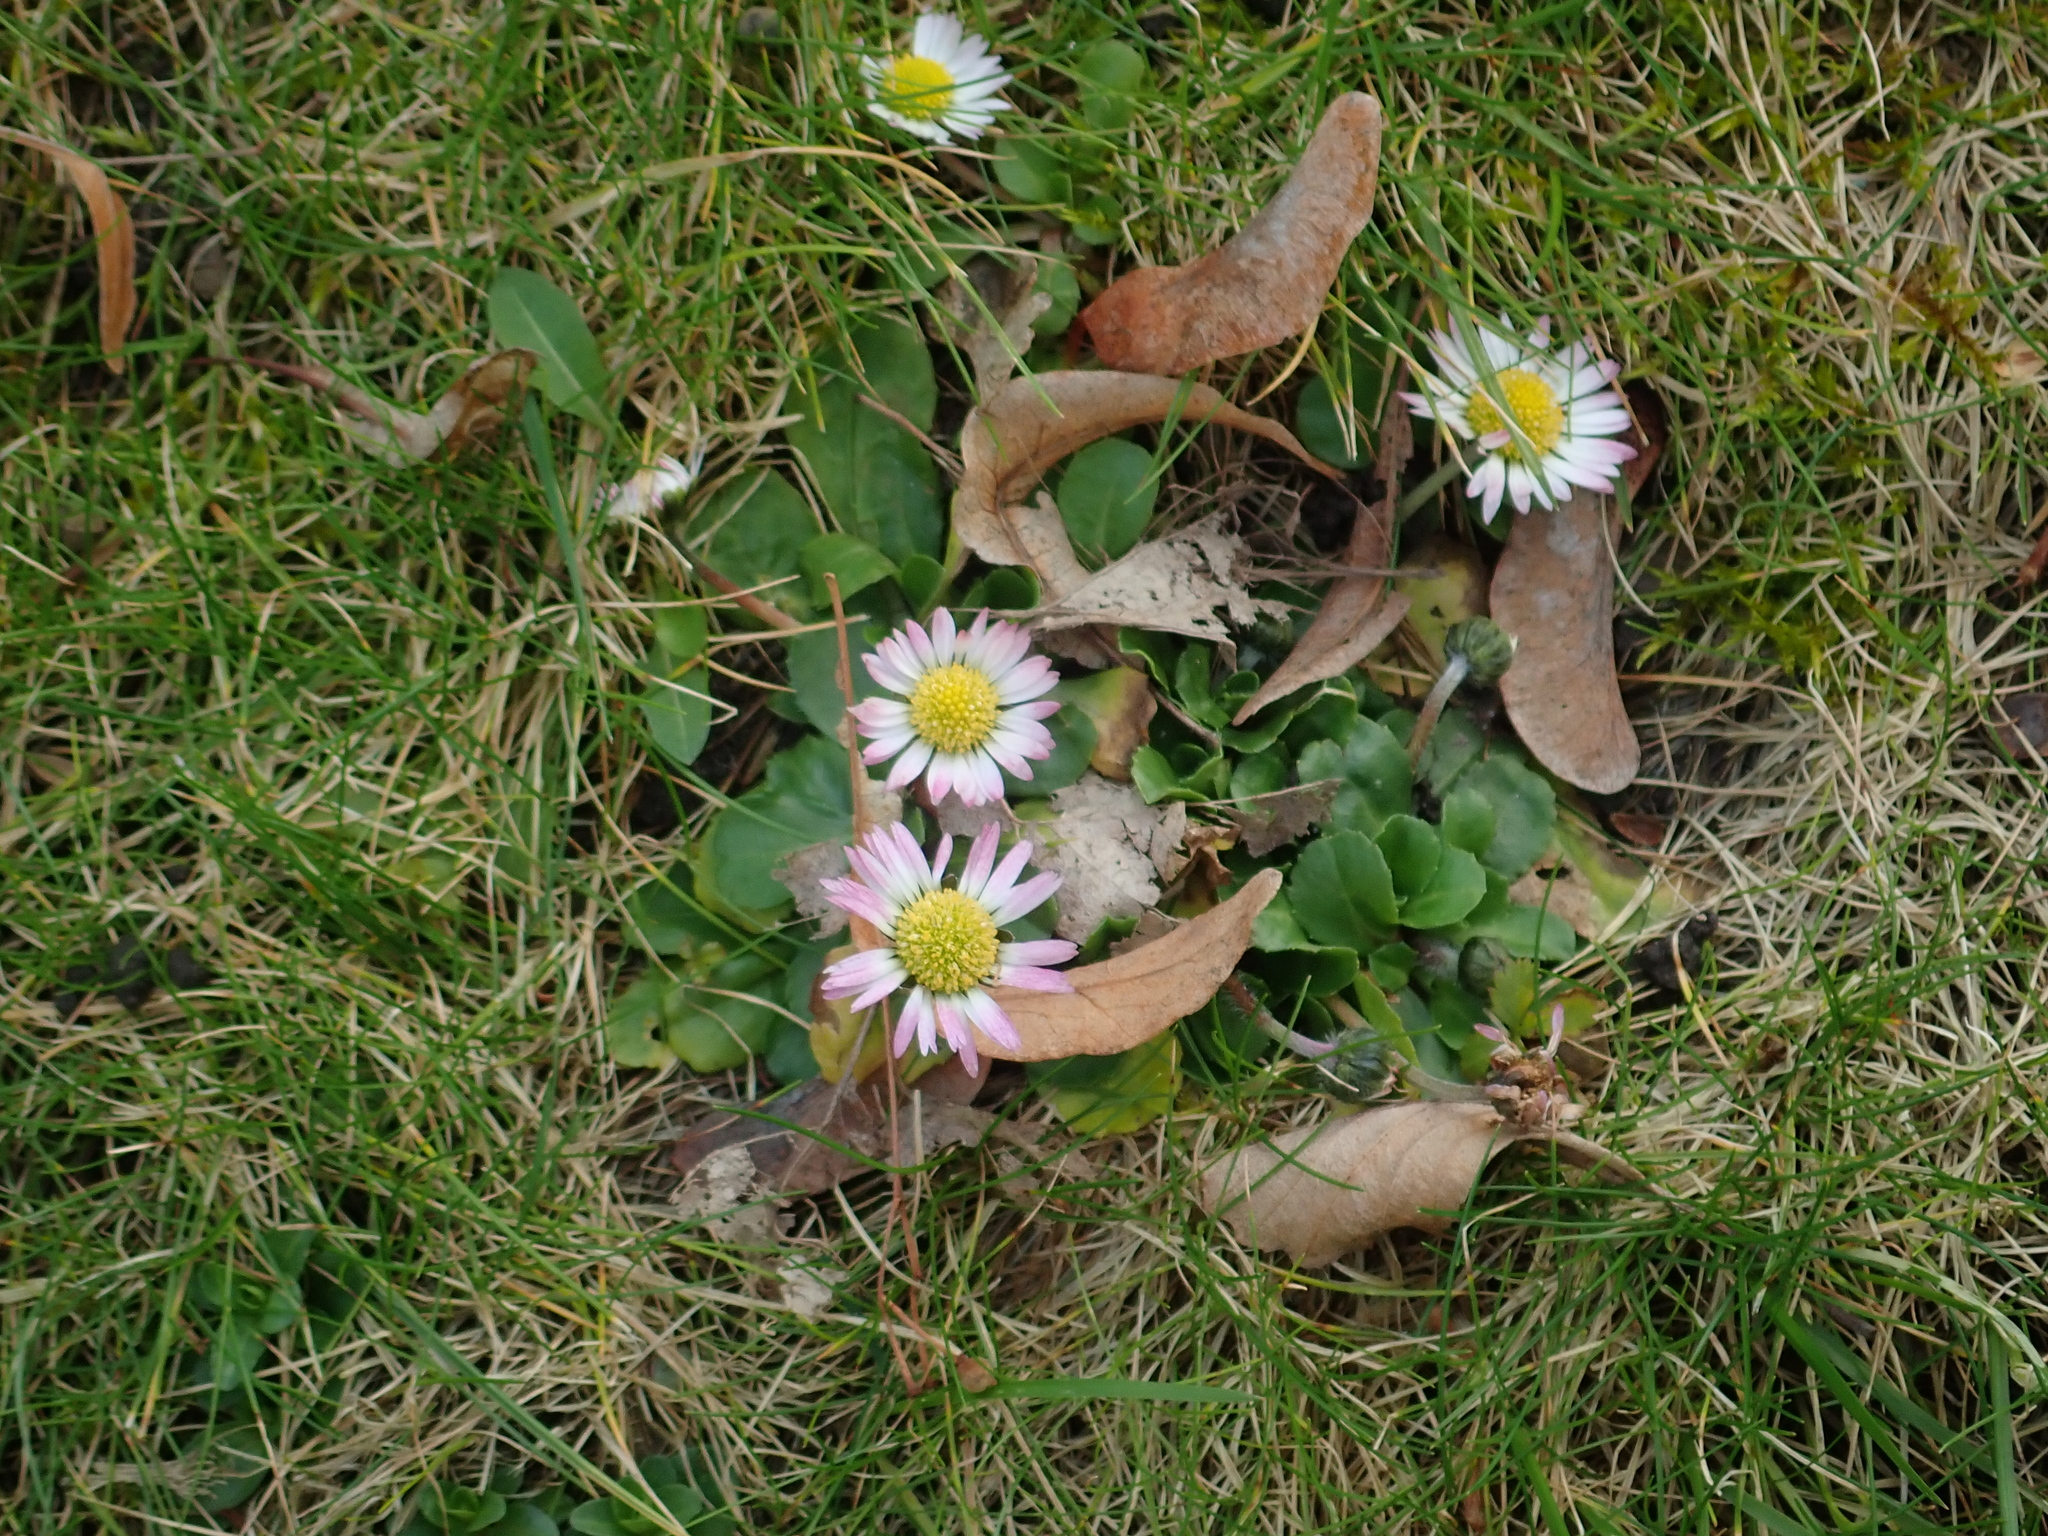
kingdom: Plantae
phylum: Tracheophyta
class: Magnoliopsida
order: Asterales
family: Asteraceae
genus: Bellis
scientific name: Bellis perennis
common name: Lawndaisy
